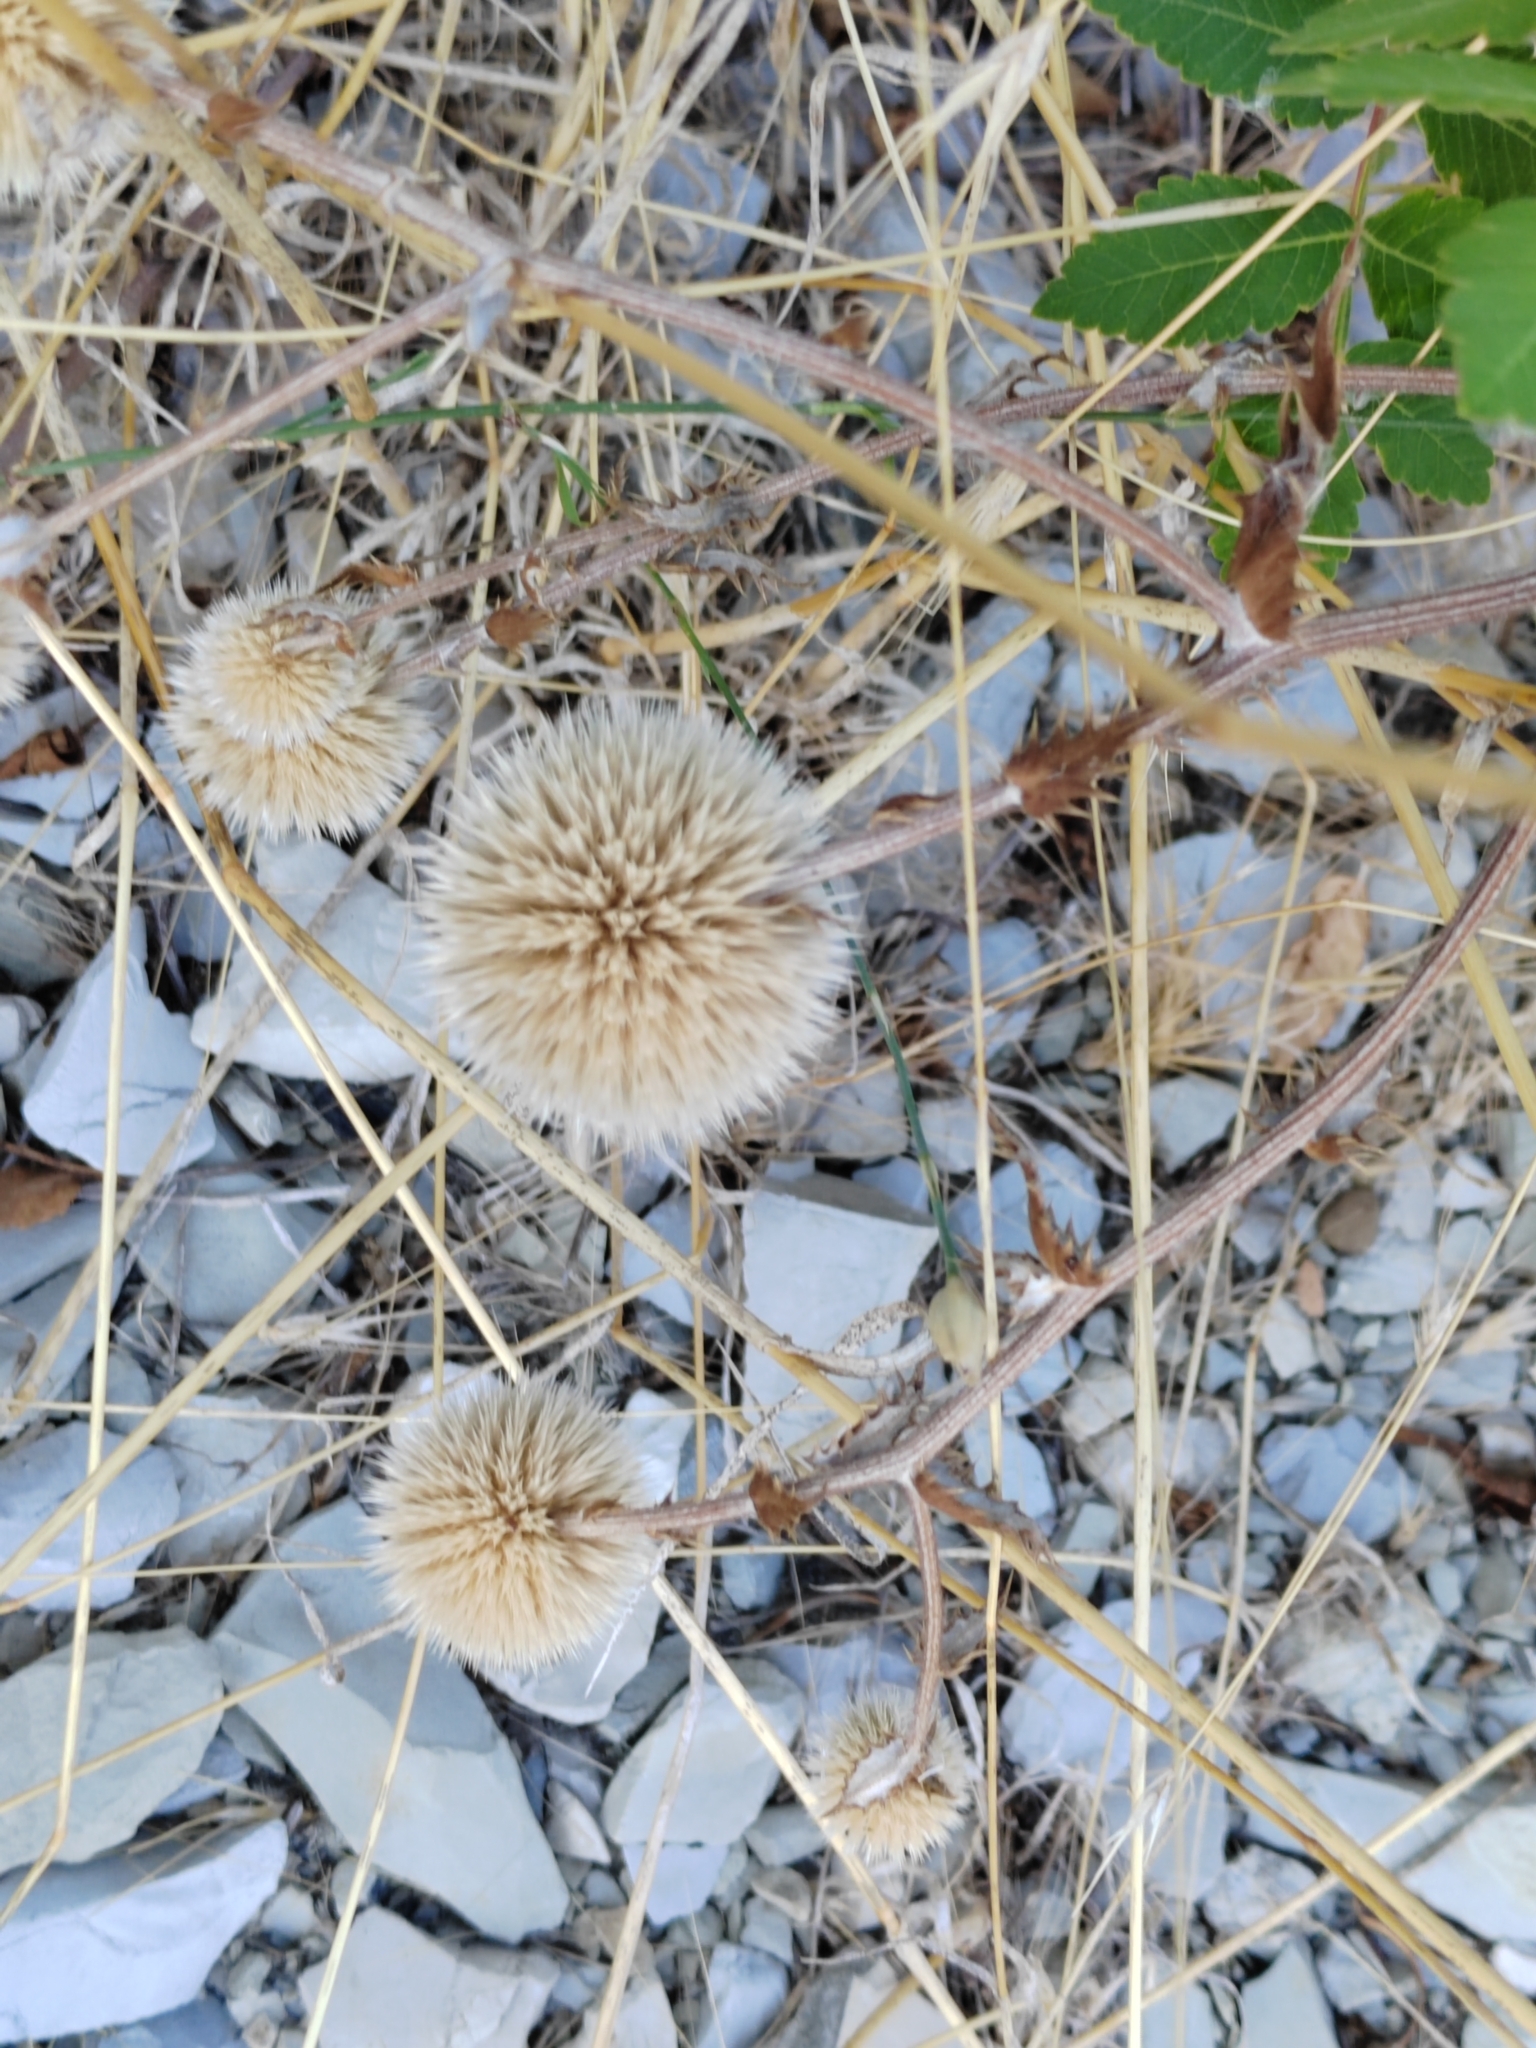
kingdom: Plantae
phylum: Tracheophyta
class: Magnoliopsida
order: Asterales
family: Asteraceae
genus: Echinops
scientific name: Echinops sphaerocephalus
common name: Glandular globe-thistle
